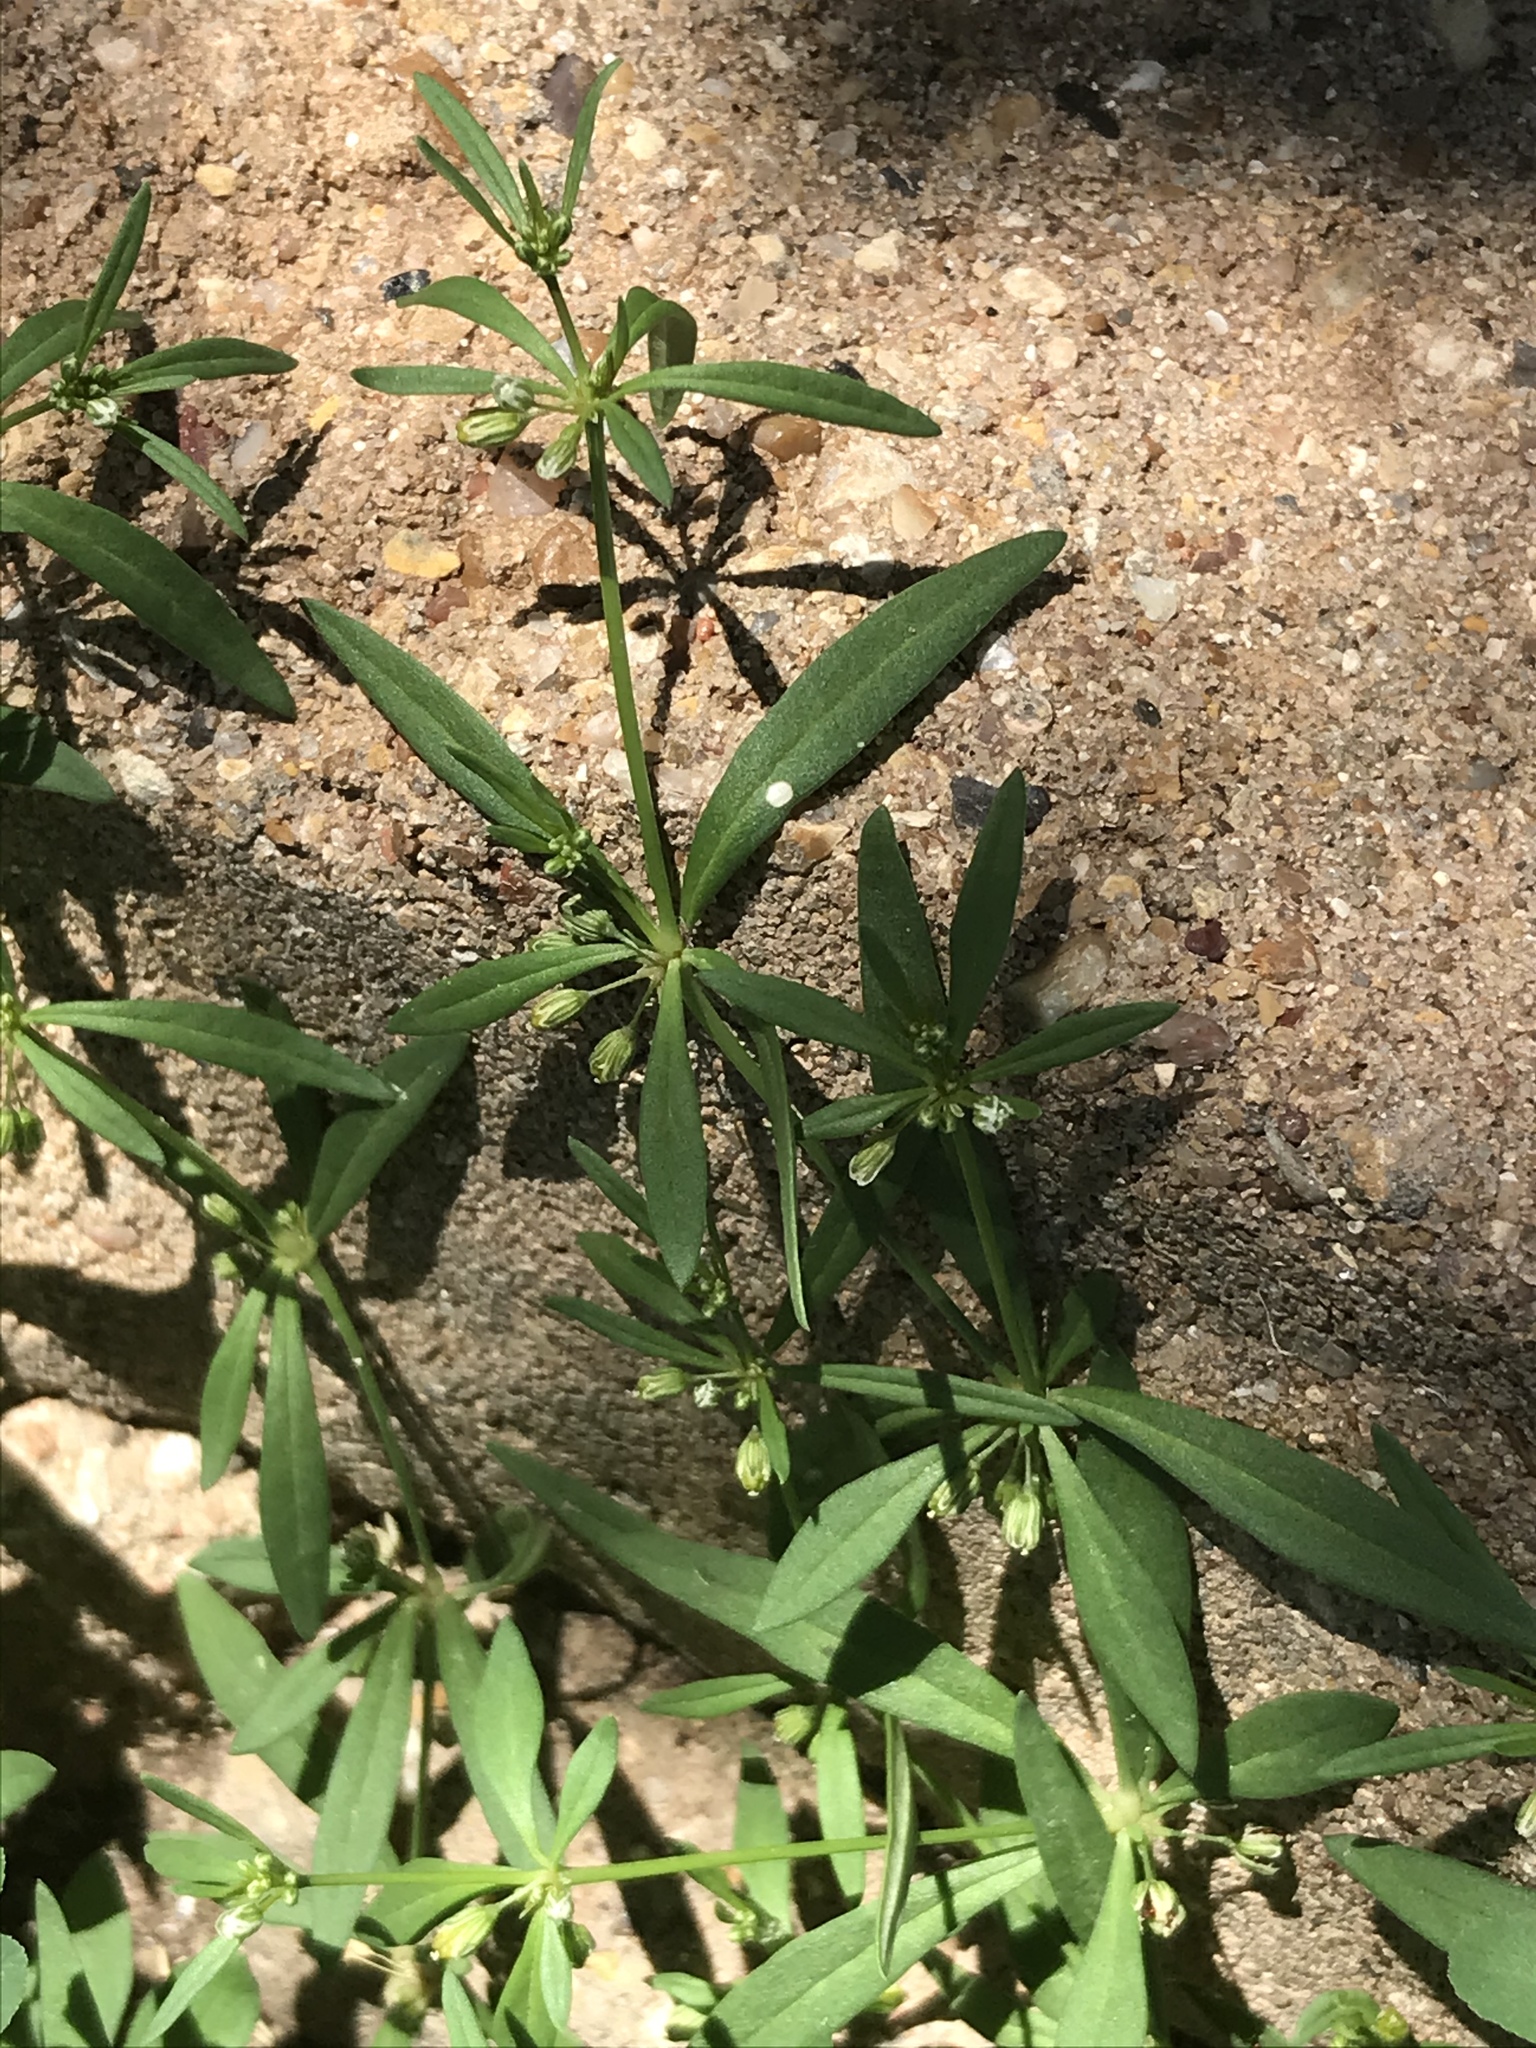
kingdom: Plantae
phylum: Tracheophyta
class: Magnoliopsida
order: Caryophyllales
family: Molluginaceae
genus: Mollugo
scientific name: Mollugo verticillata
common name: Green carpetweed
